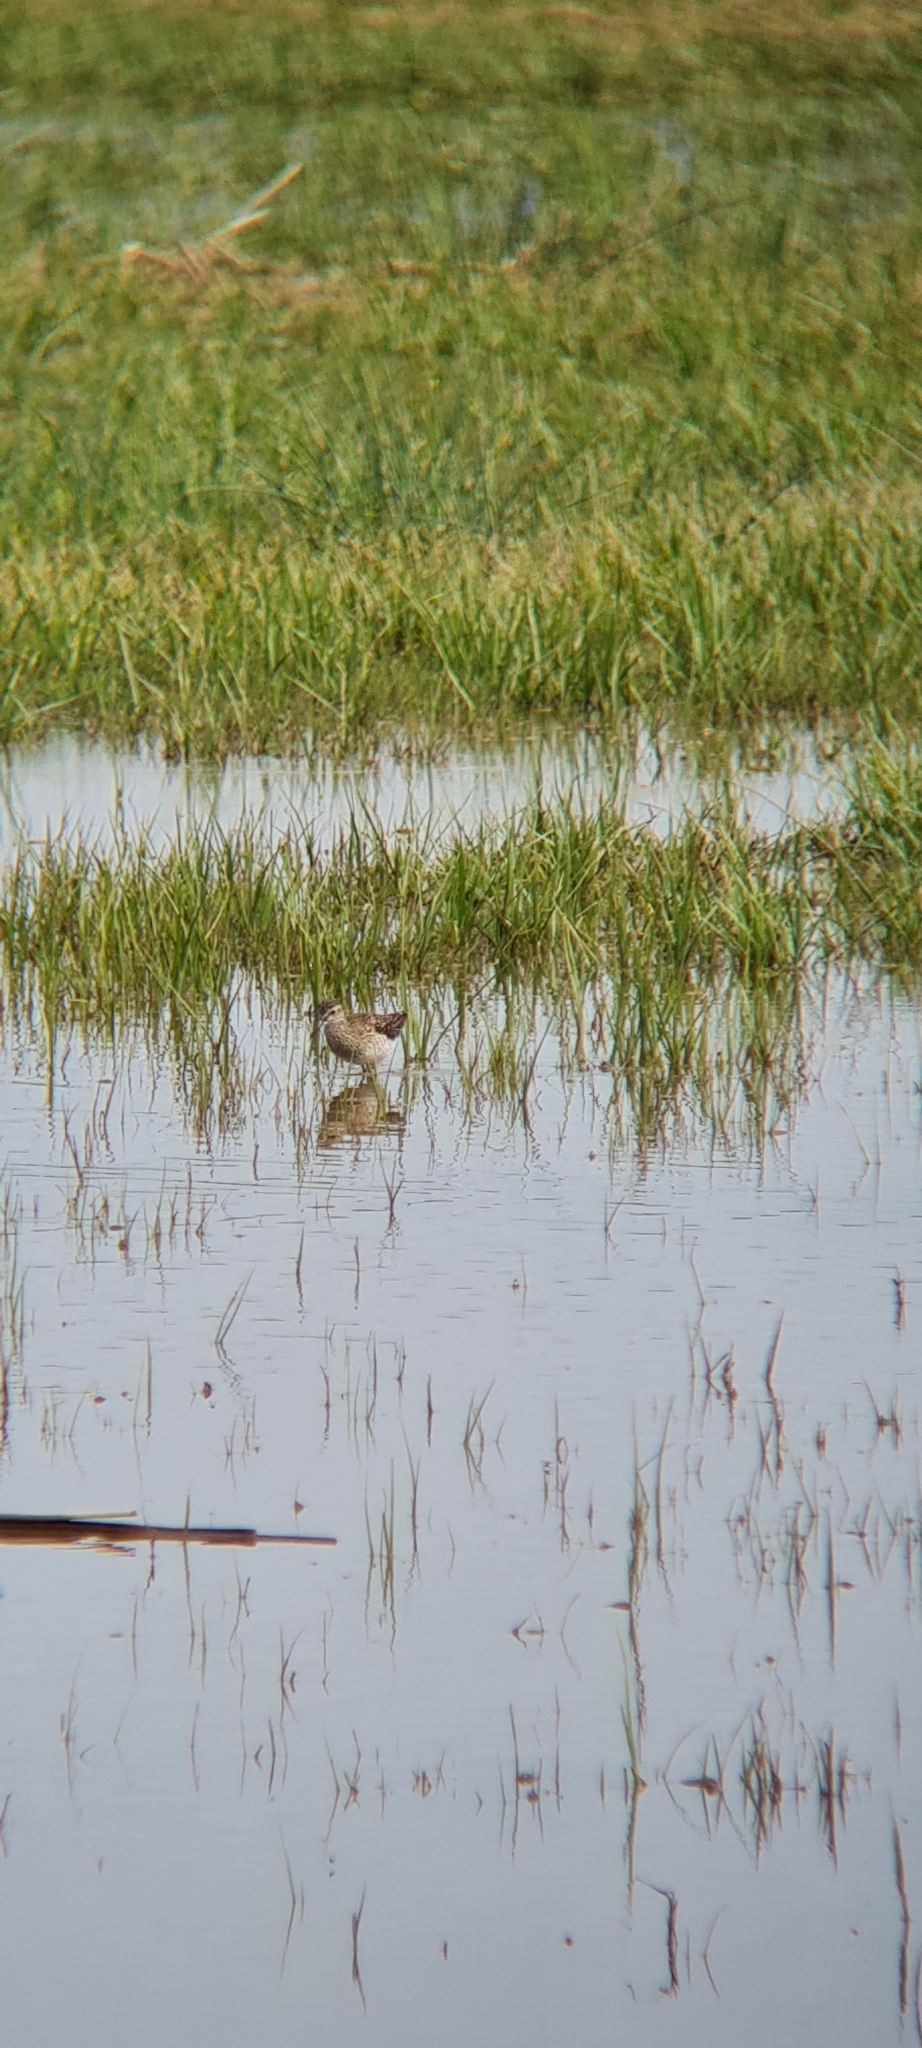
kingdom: Animalia
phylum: Chordata
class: Aves
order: Charadriiformes
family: Scolopacidae
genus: Tringa
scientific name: Tringa glareola
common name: Wood sandpiper
